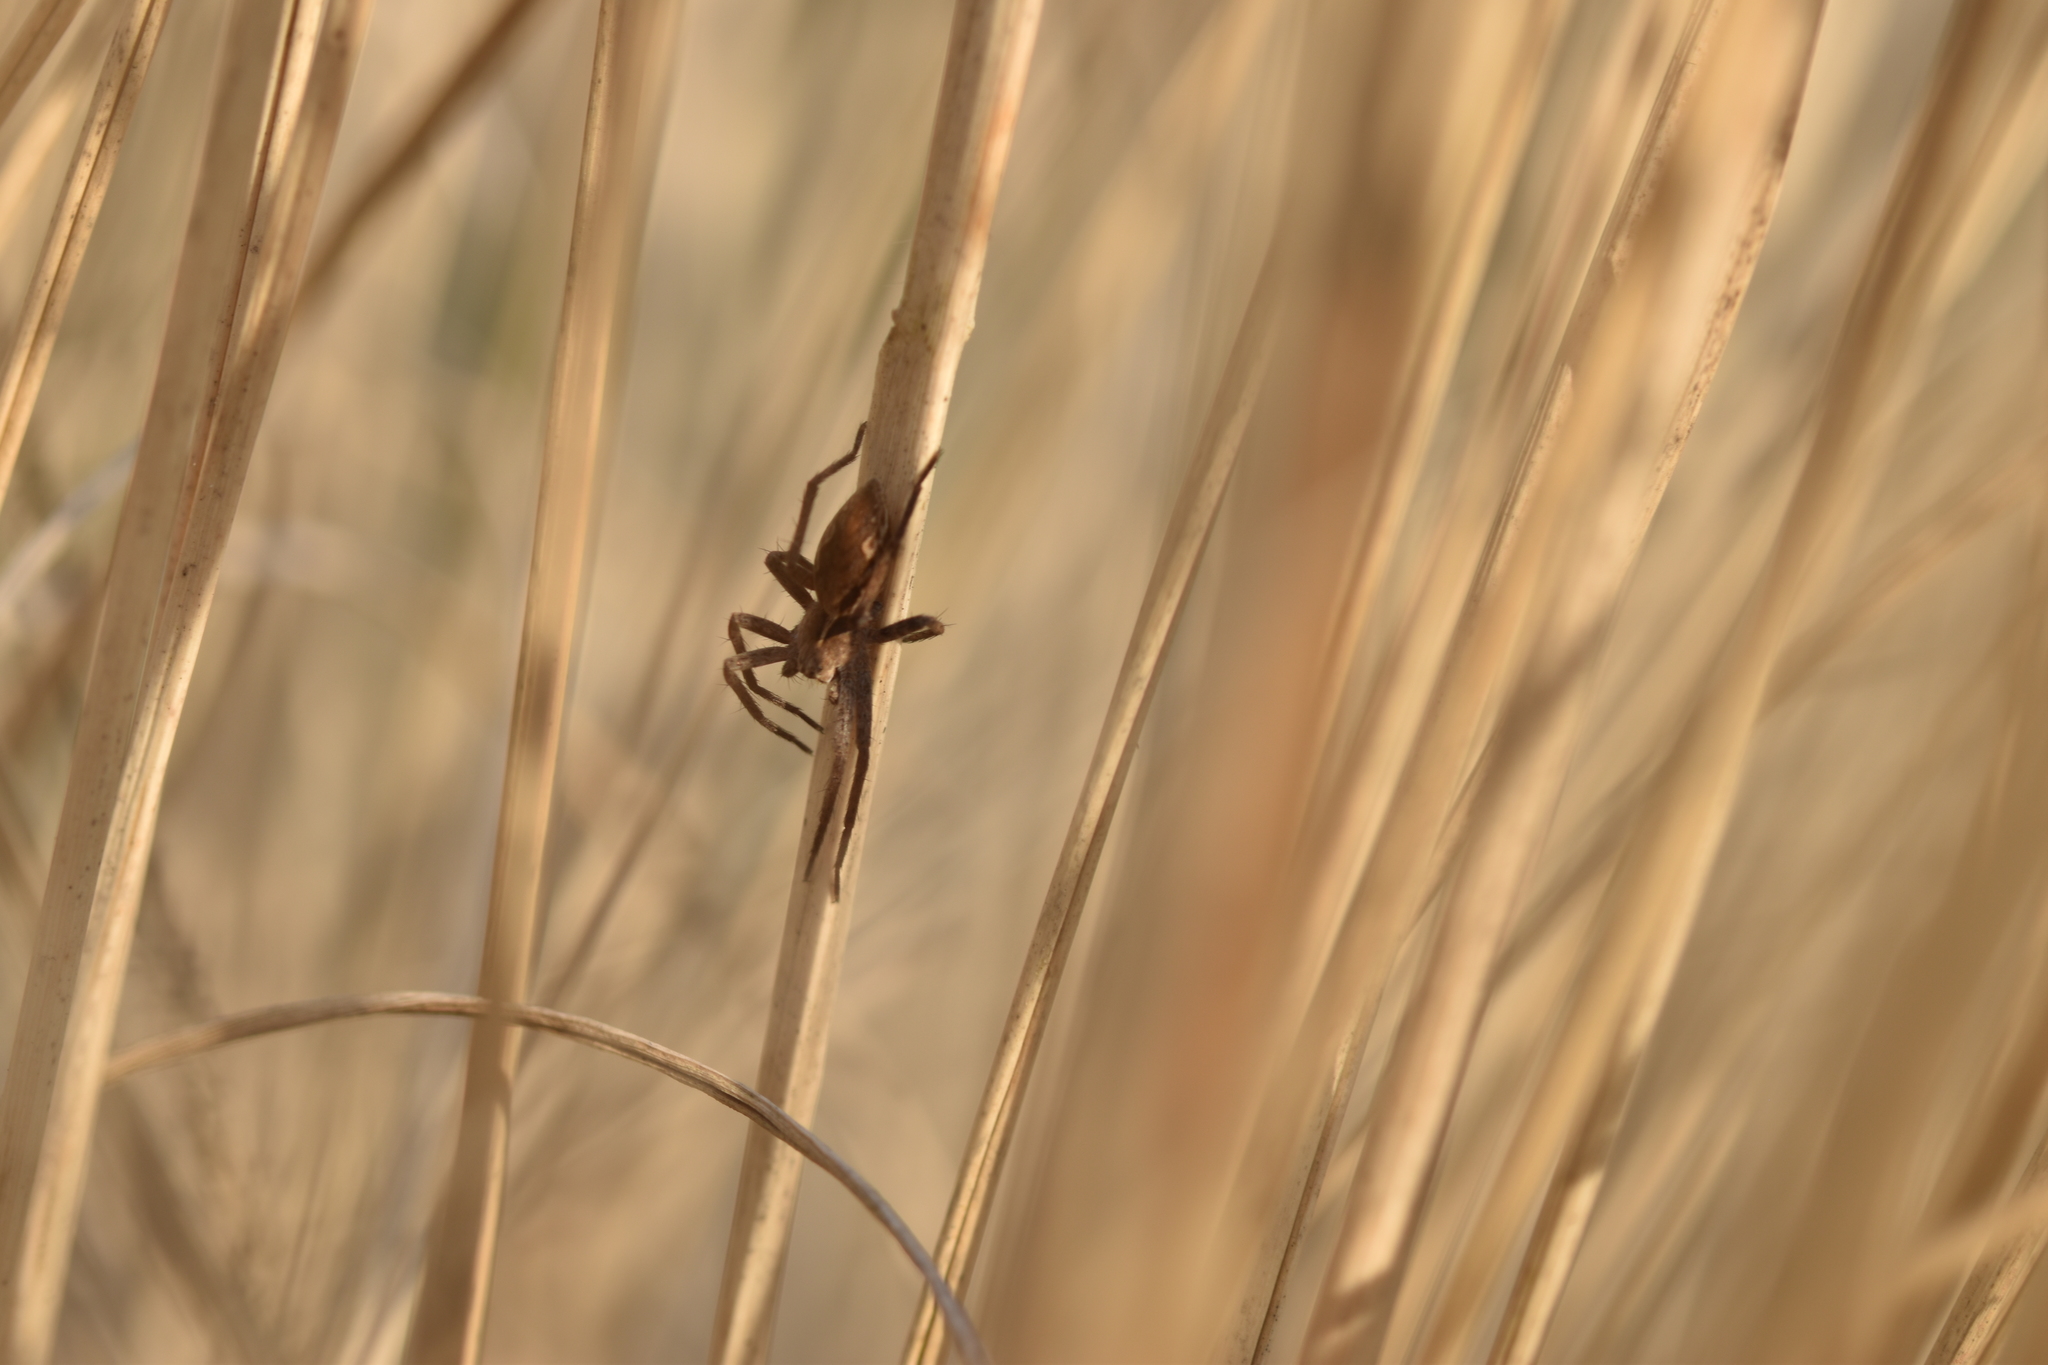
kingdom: Animalia
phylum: Arthropoda
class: Arachnida
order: Araneae
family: Pisauridae
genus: Pisaura
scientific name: Pisaura mirabilis
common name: Tent spider
